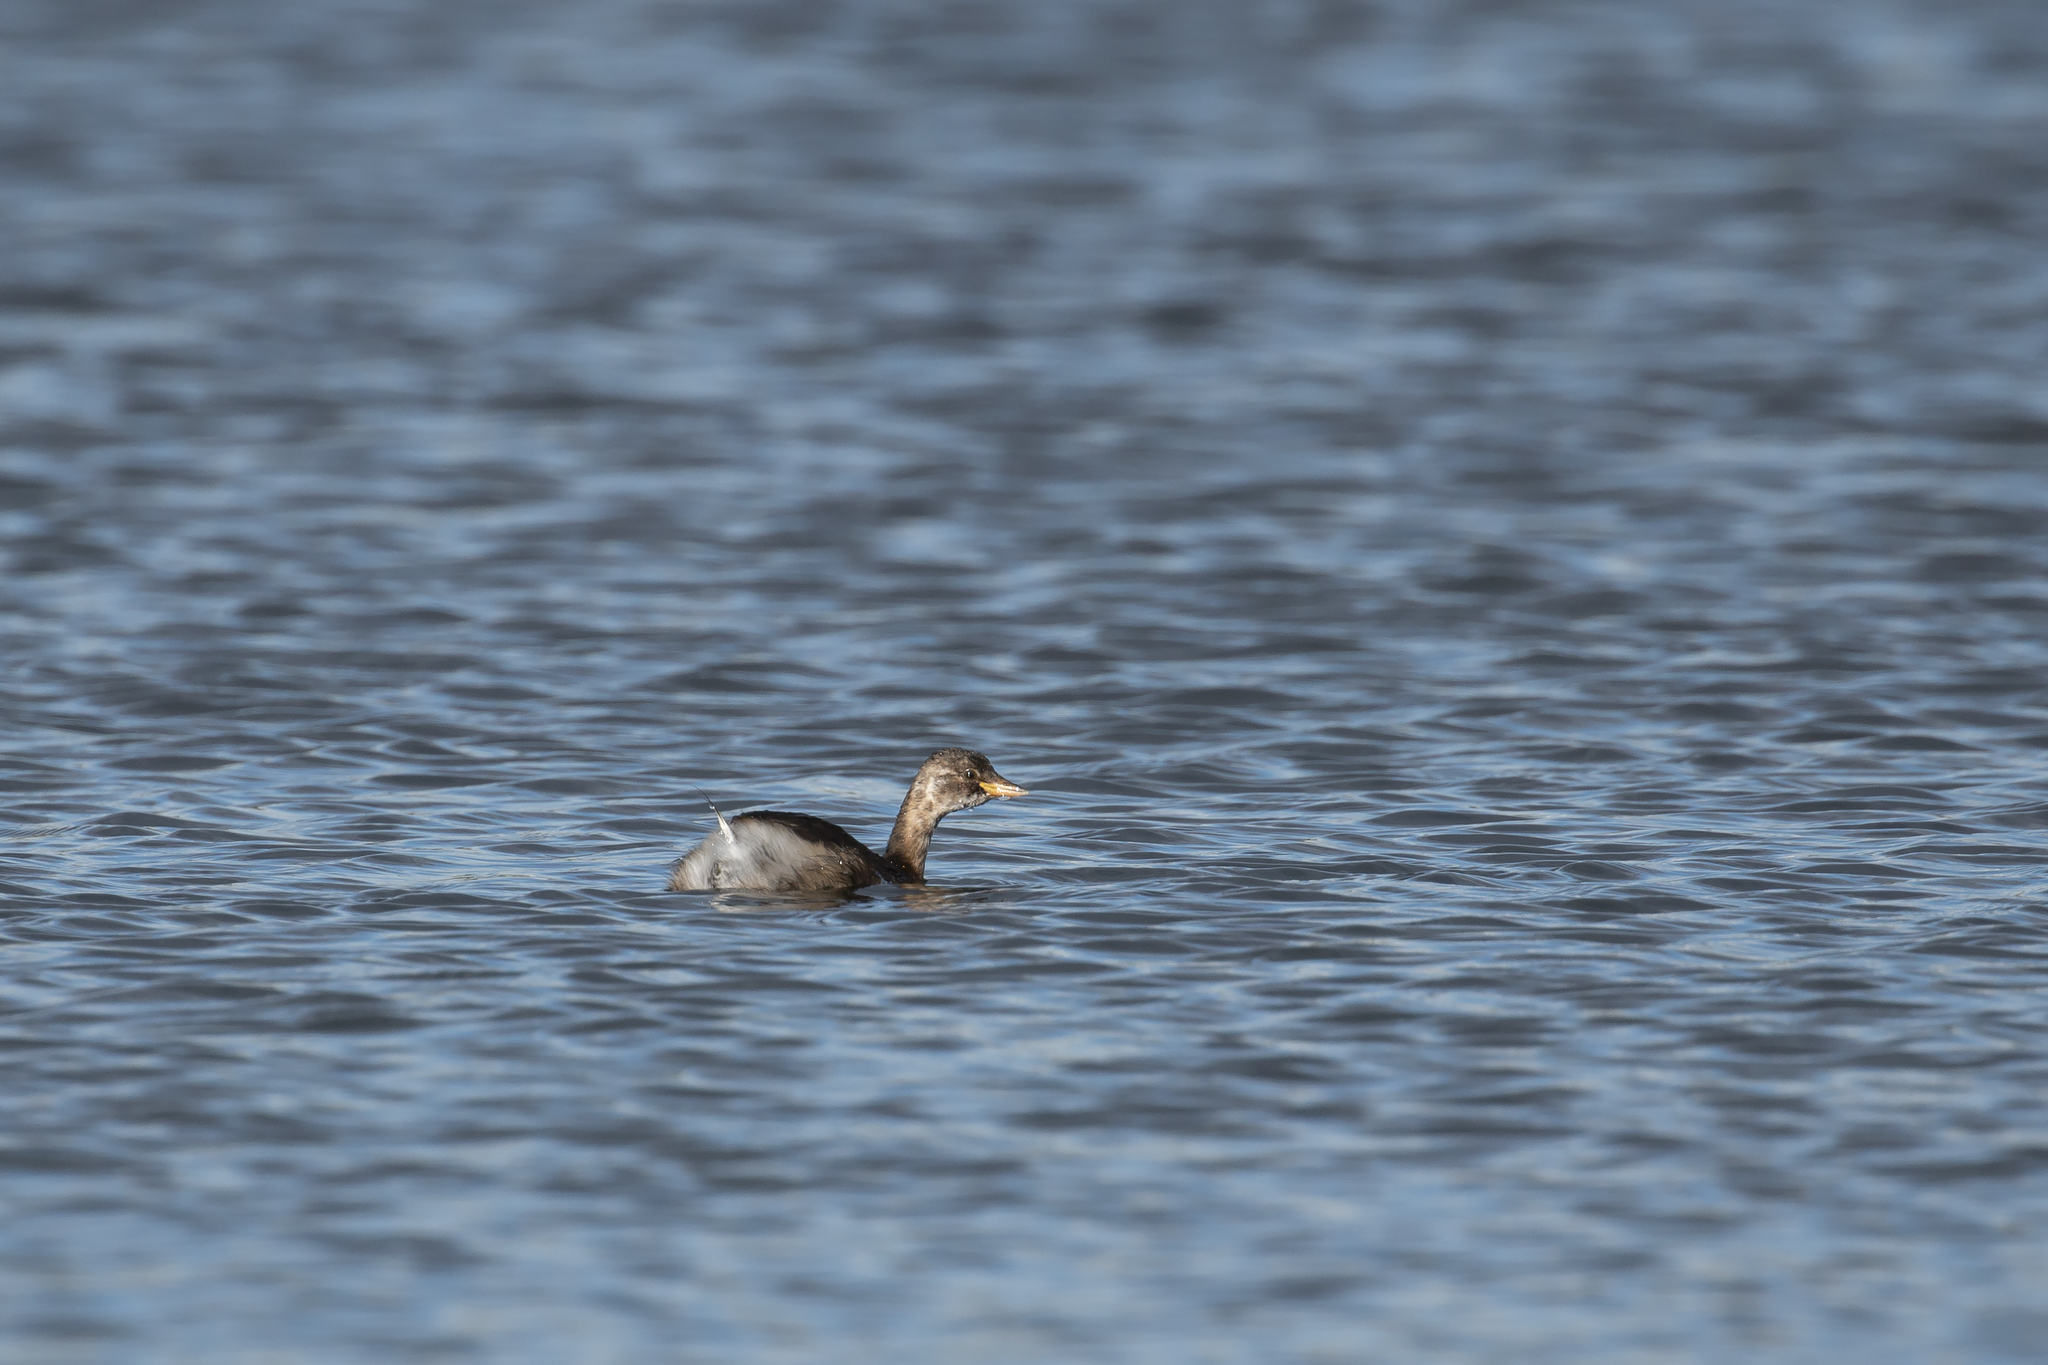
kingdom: Animalia
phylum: Chordata
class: Aves
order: Podicipediformes
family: Podicipedidae
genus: Tachybaptus
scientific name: Tachybaptus ruficollis
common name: Little grebe
